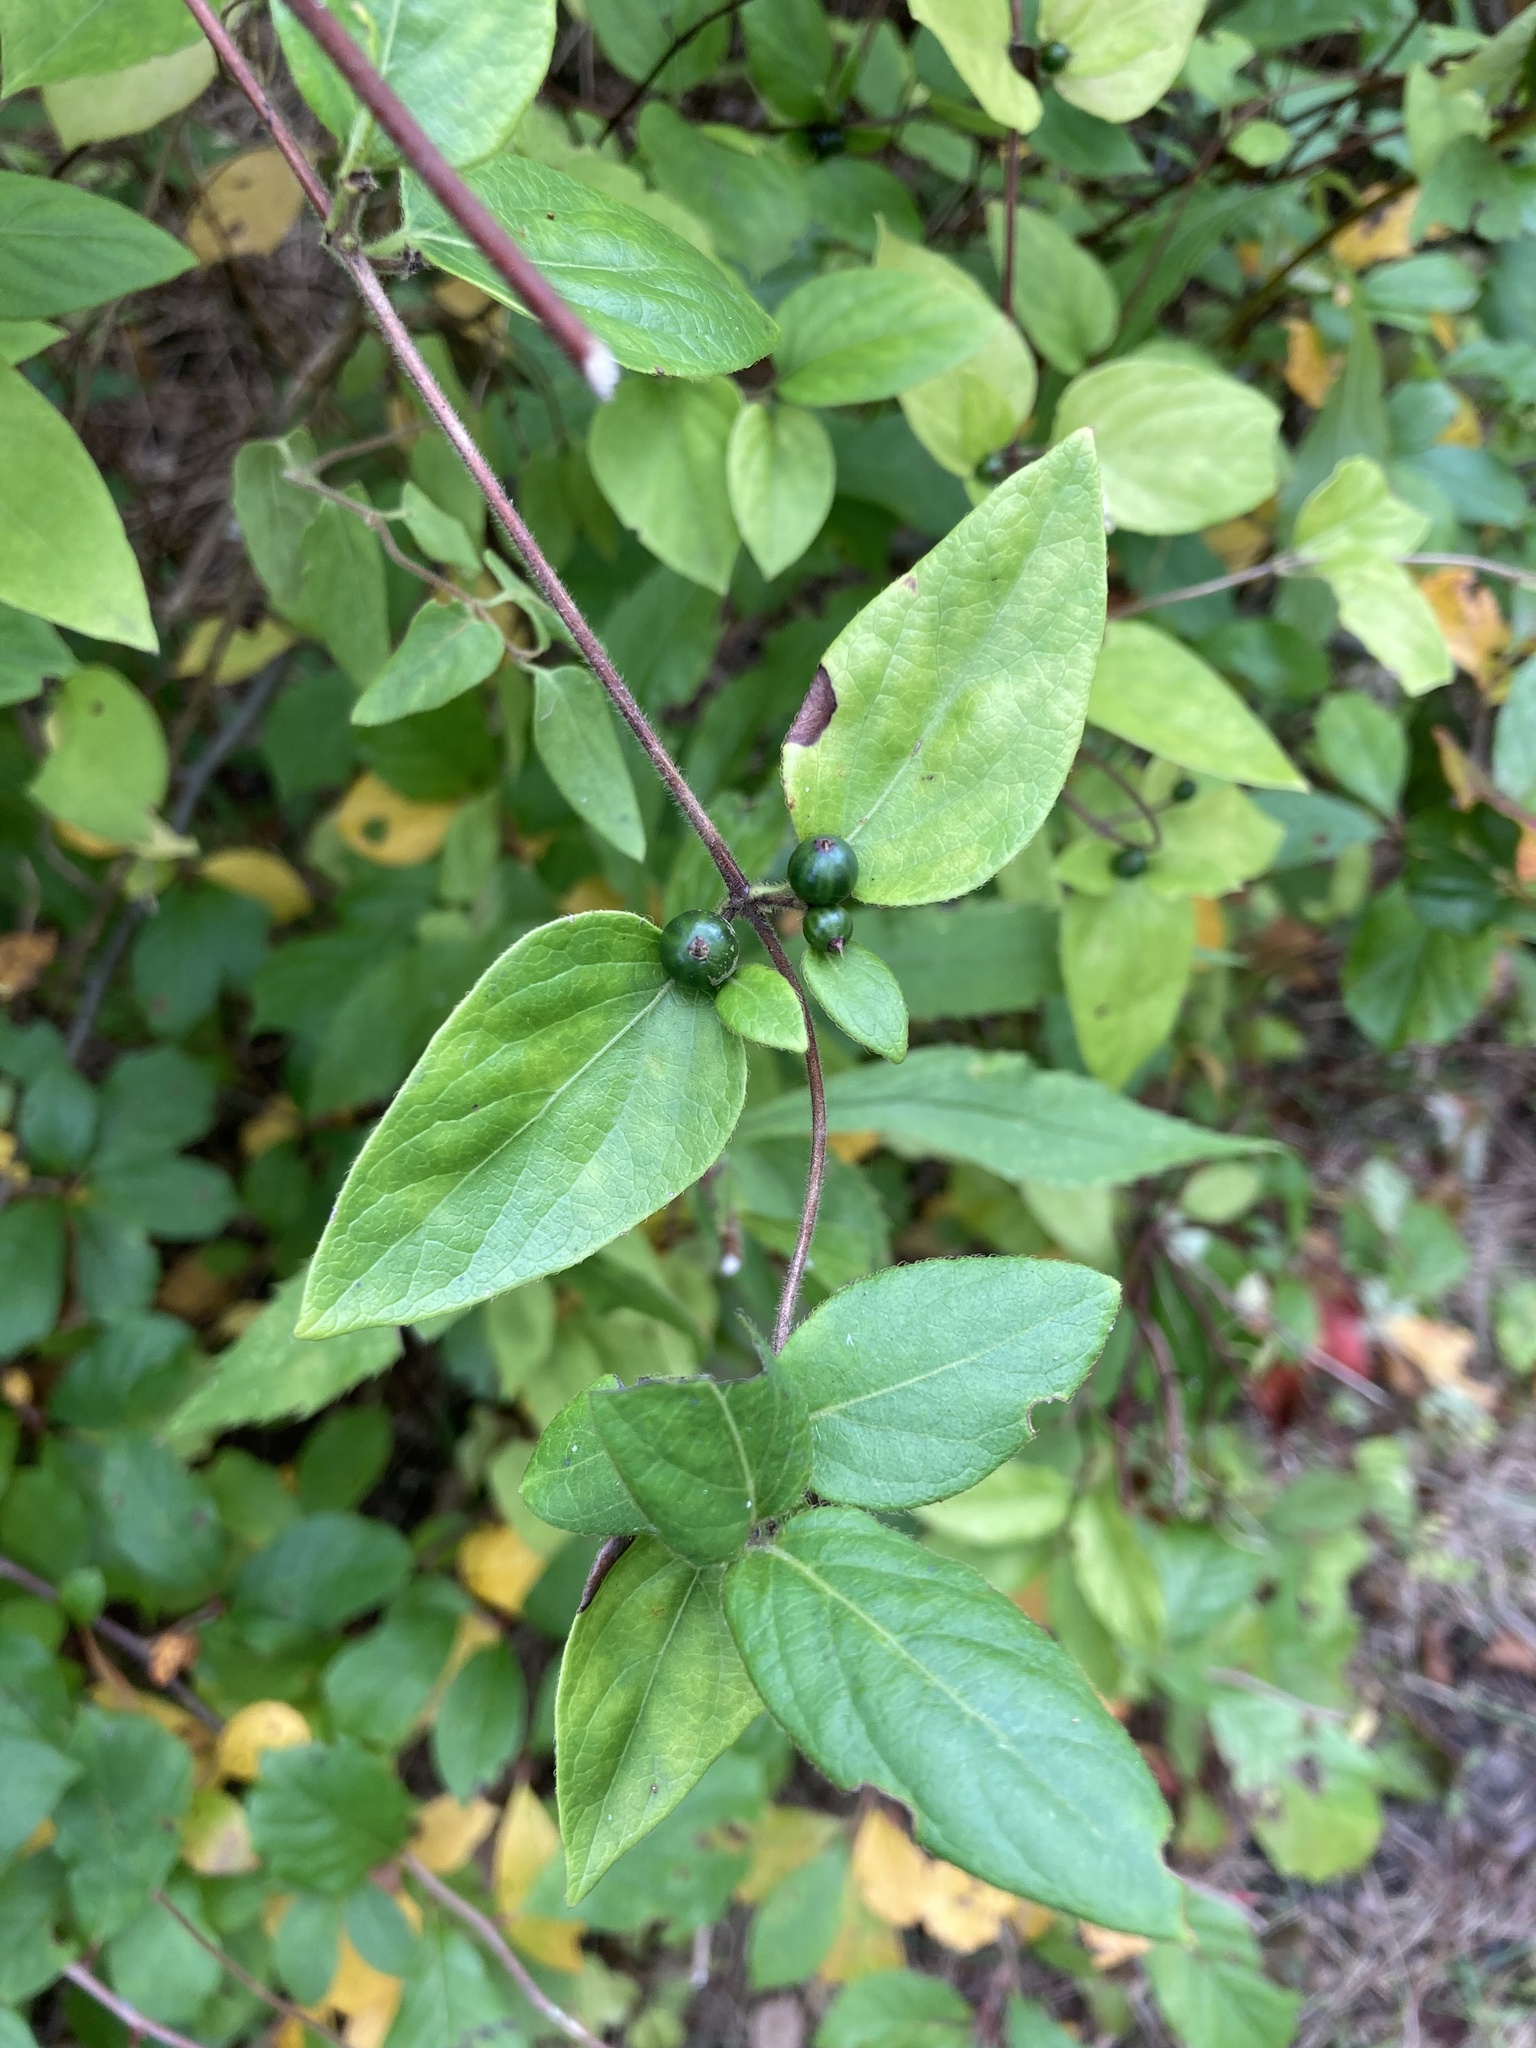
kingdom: Plantae
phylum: Tracheophyta
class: Magnoliopsida
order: Dipsacales
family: Caprifoliaceae
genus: Lonicera
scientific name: Lonicera japonica
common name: Japanese honeysuckle
